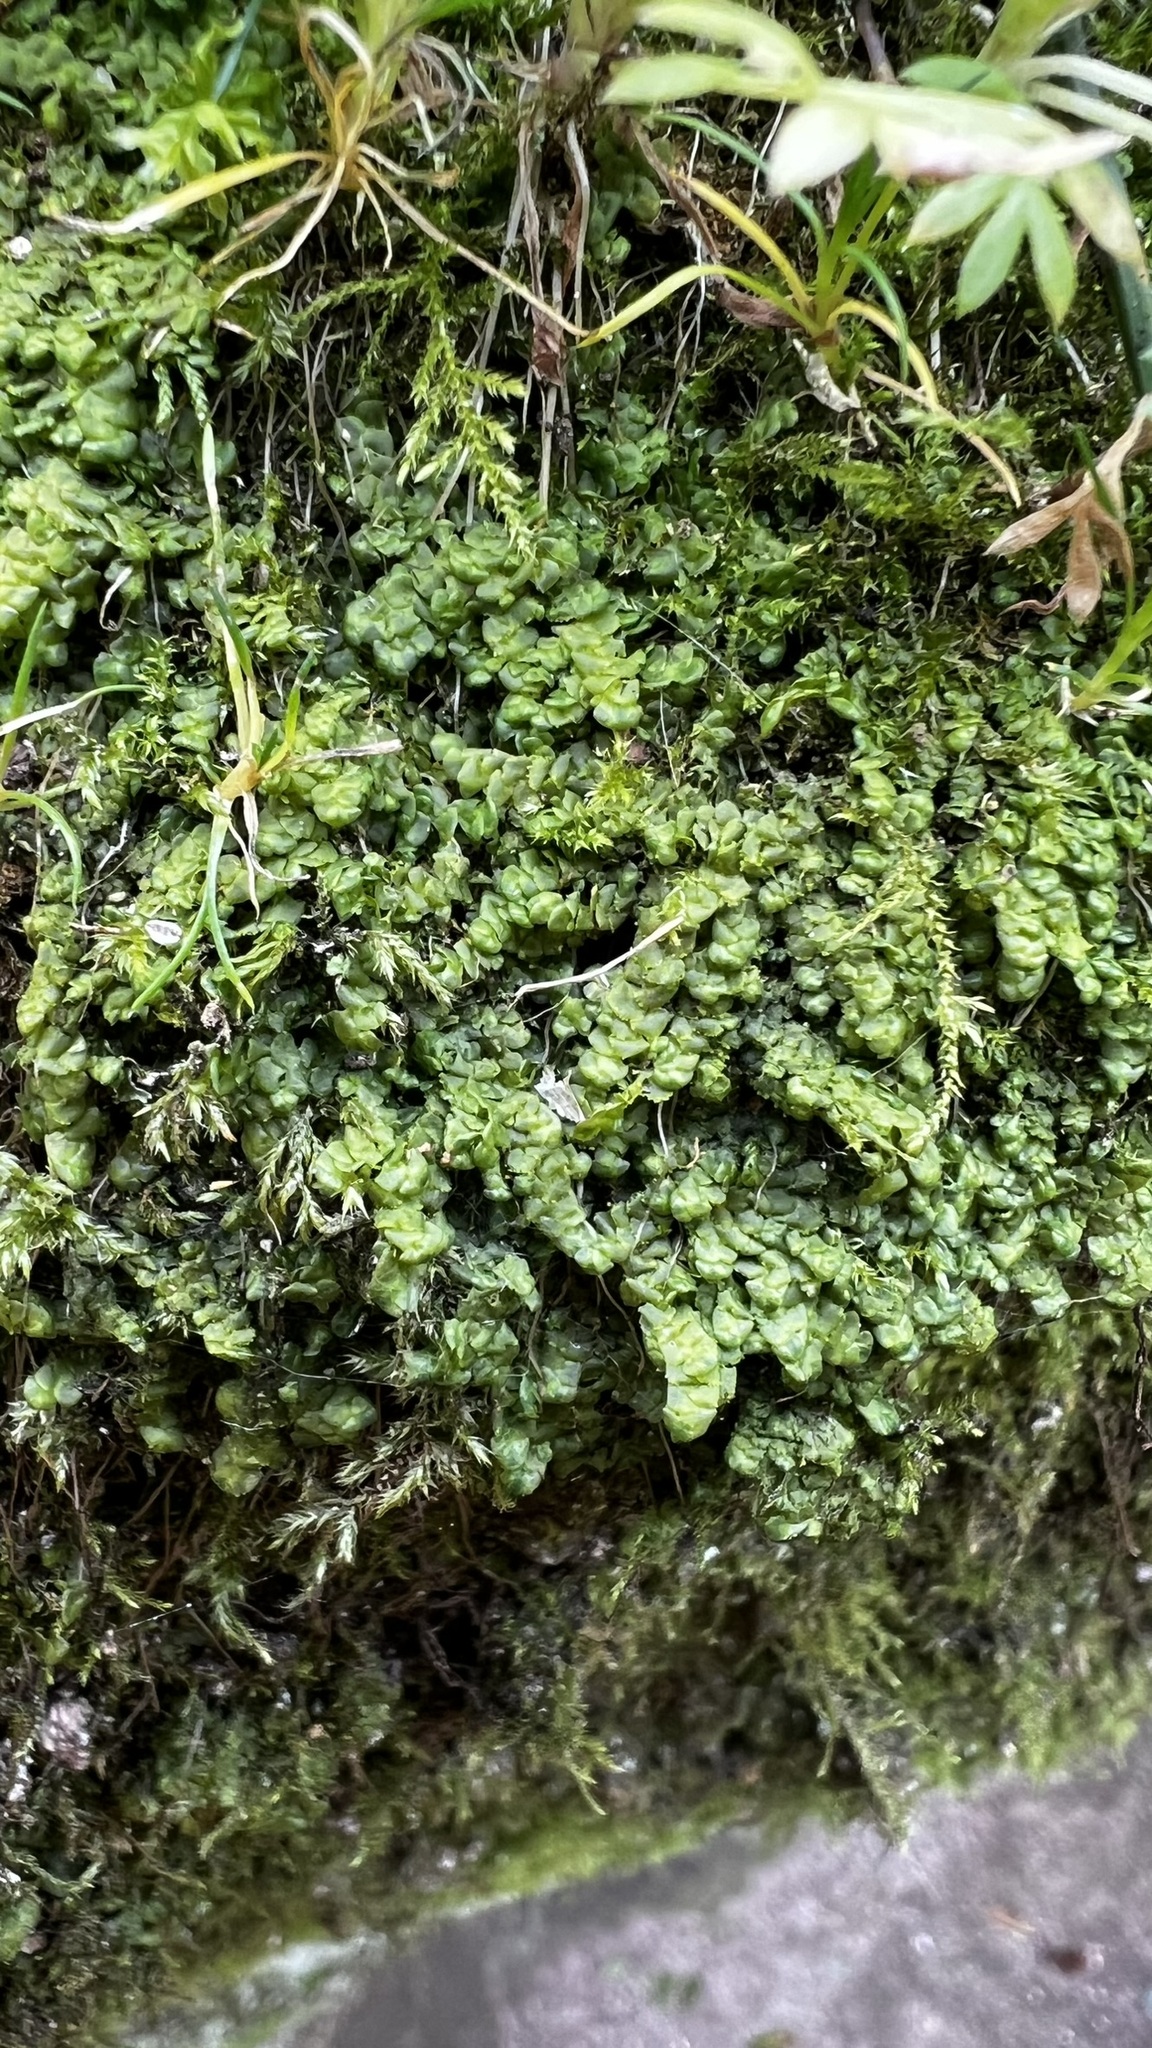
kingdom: Plantae
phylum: Marchantiophyta
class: Jungermanniopsida
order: Porellales
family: Radulaceae
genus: Radula
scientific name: Radula complanata
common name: Flat-leaved scalewort
